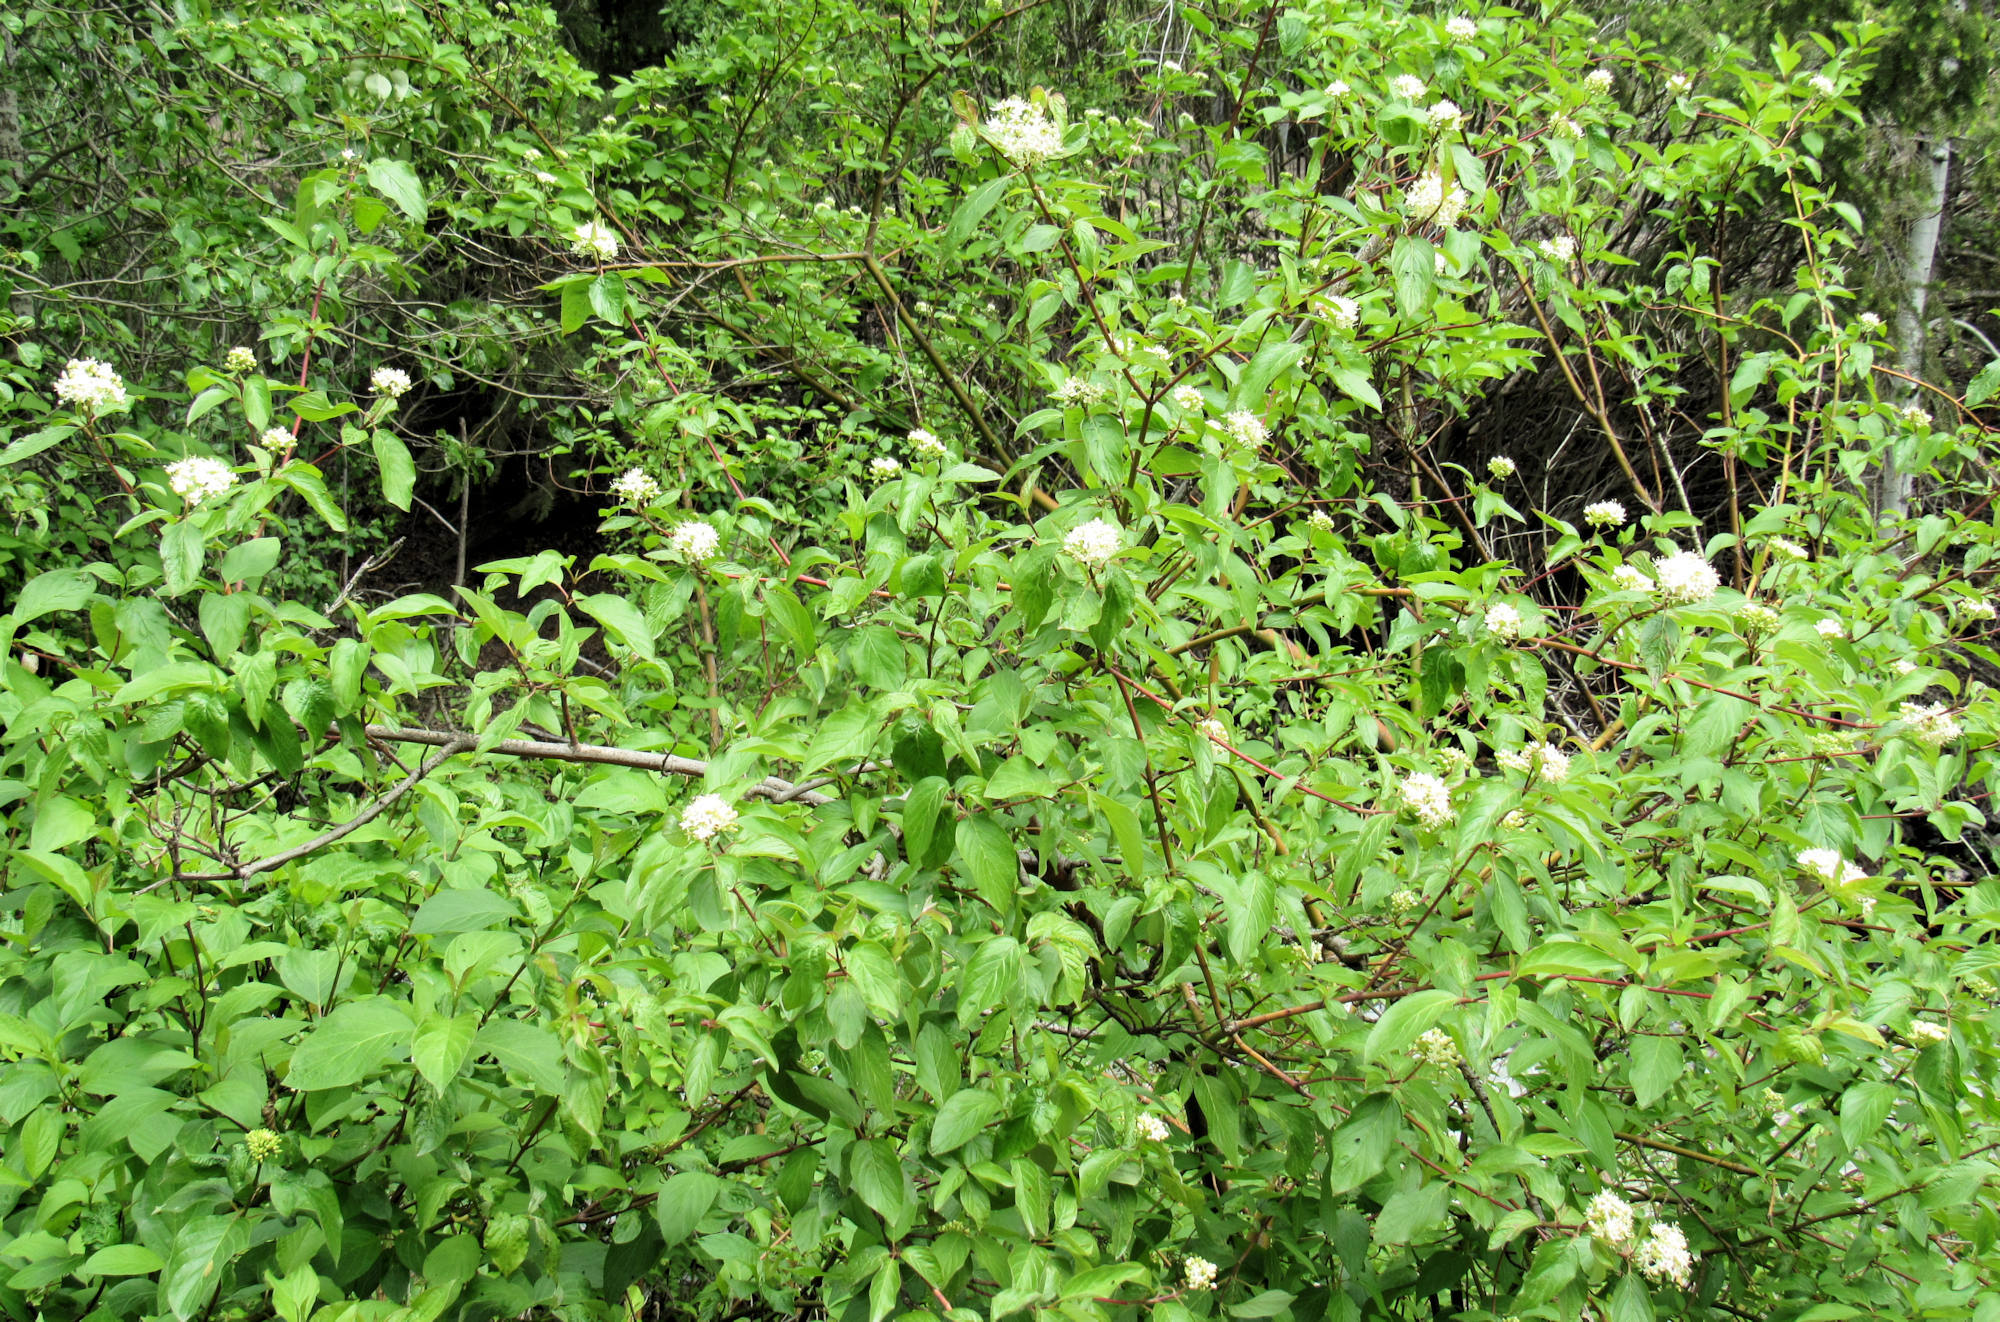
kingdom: Plantae
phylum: Tracheophyta
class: Magnoliopsida
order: Cornales
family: Cornaceae
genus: Cornus
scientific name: Cornus sericea
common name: Red-osier dogwood
